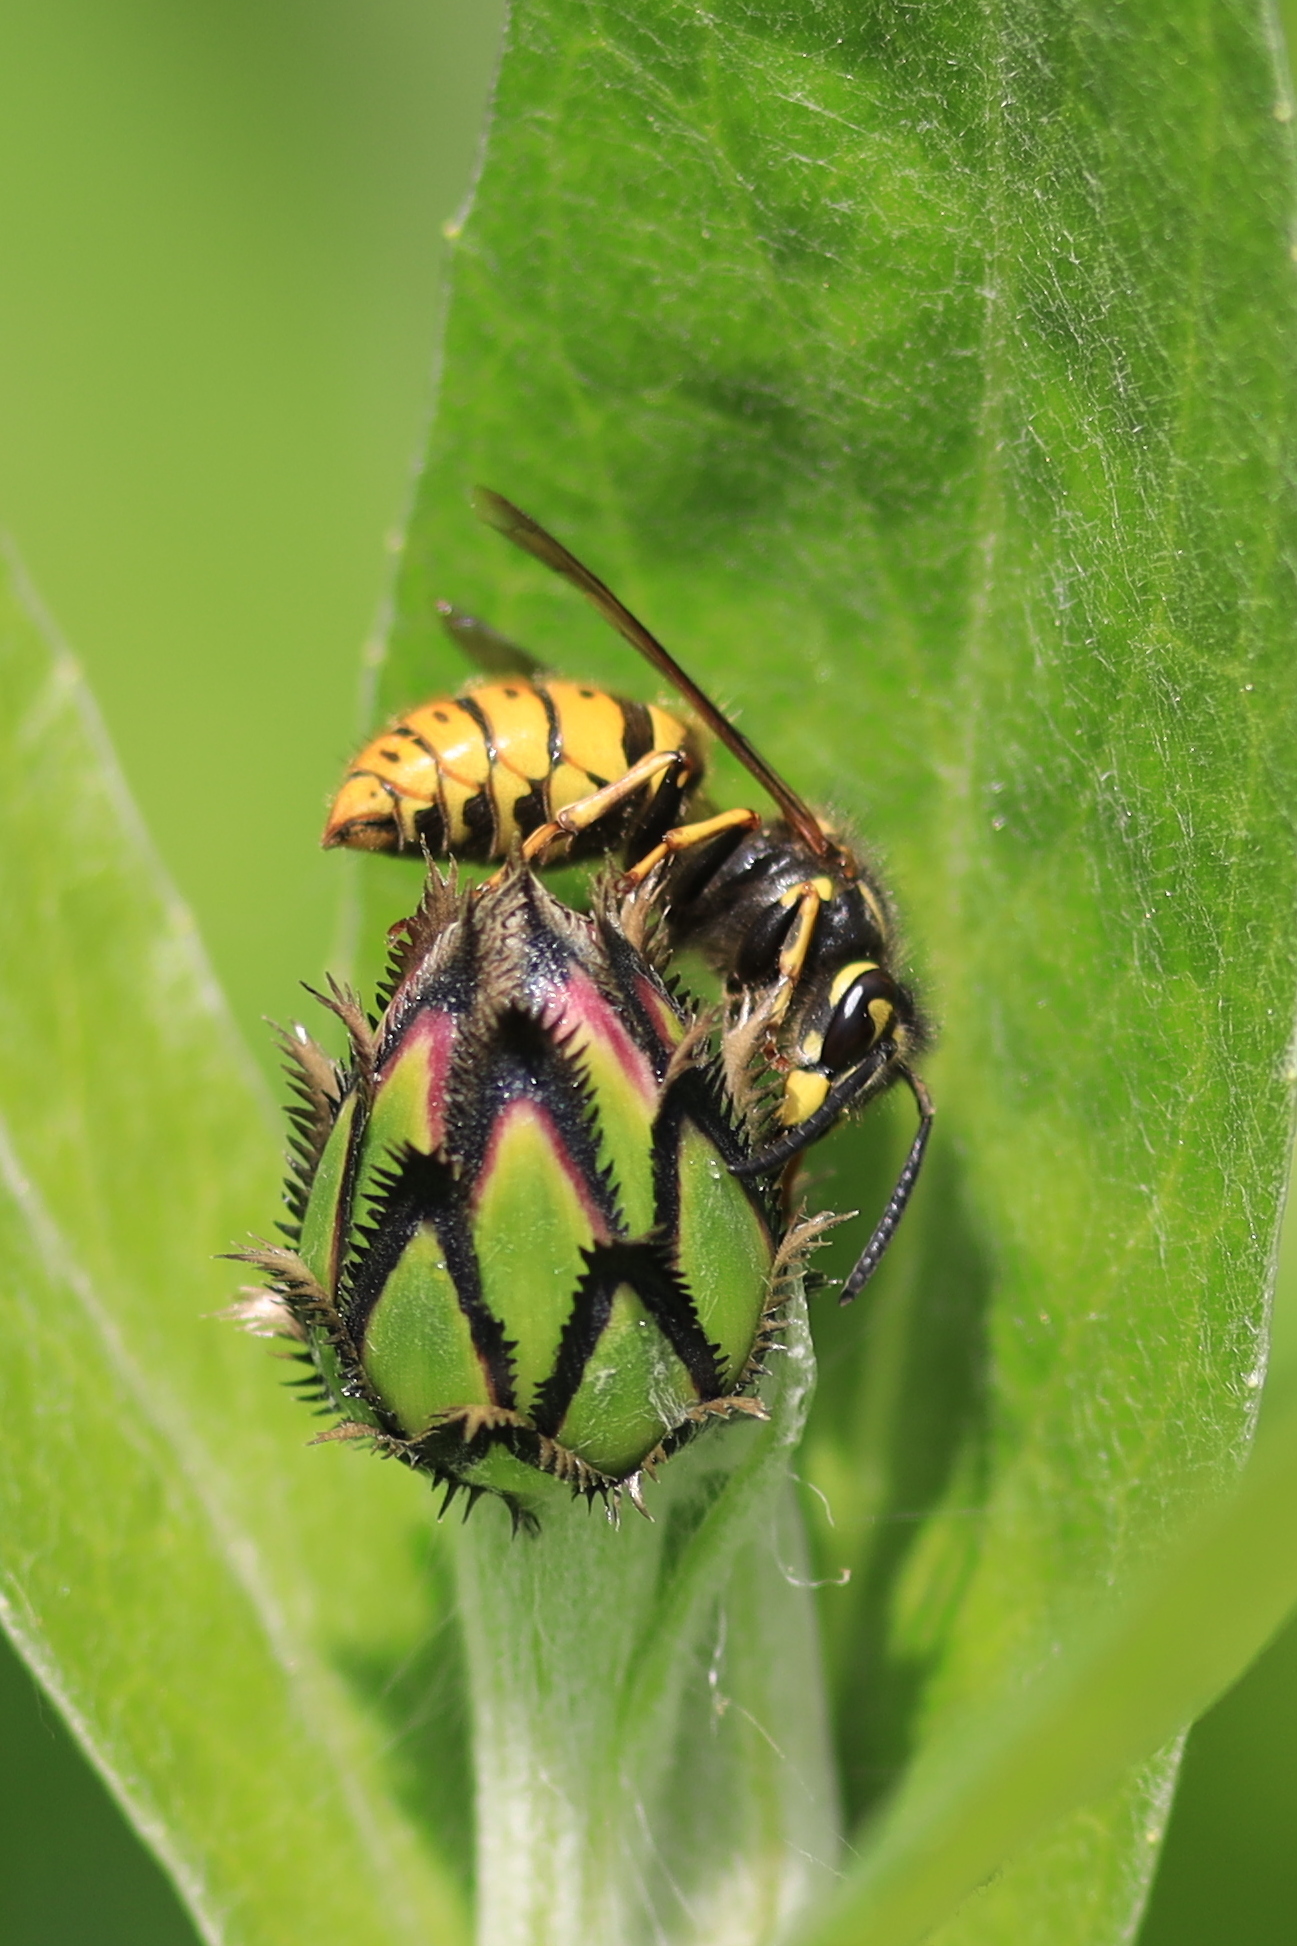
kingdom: Animalia
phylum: Arthropoda
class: Insecta
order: Hymenoptera
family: Vespidae
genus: Vespula
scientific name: Vespula vulgaris
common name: Common wasp
